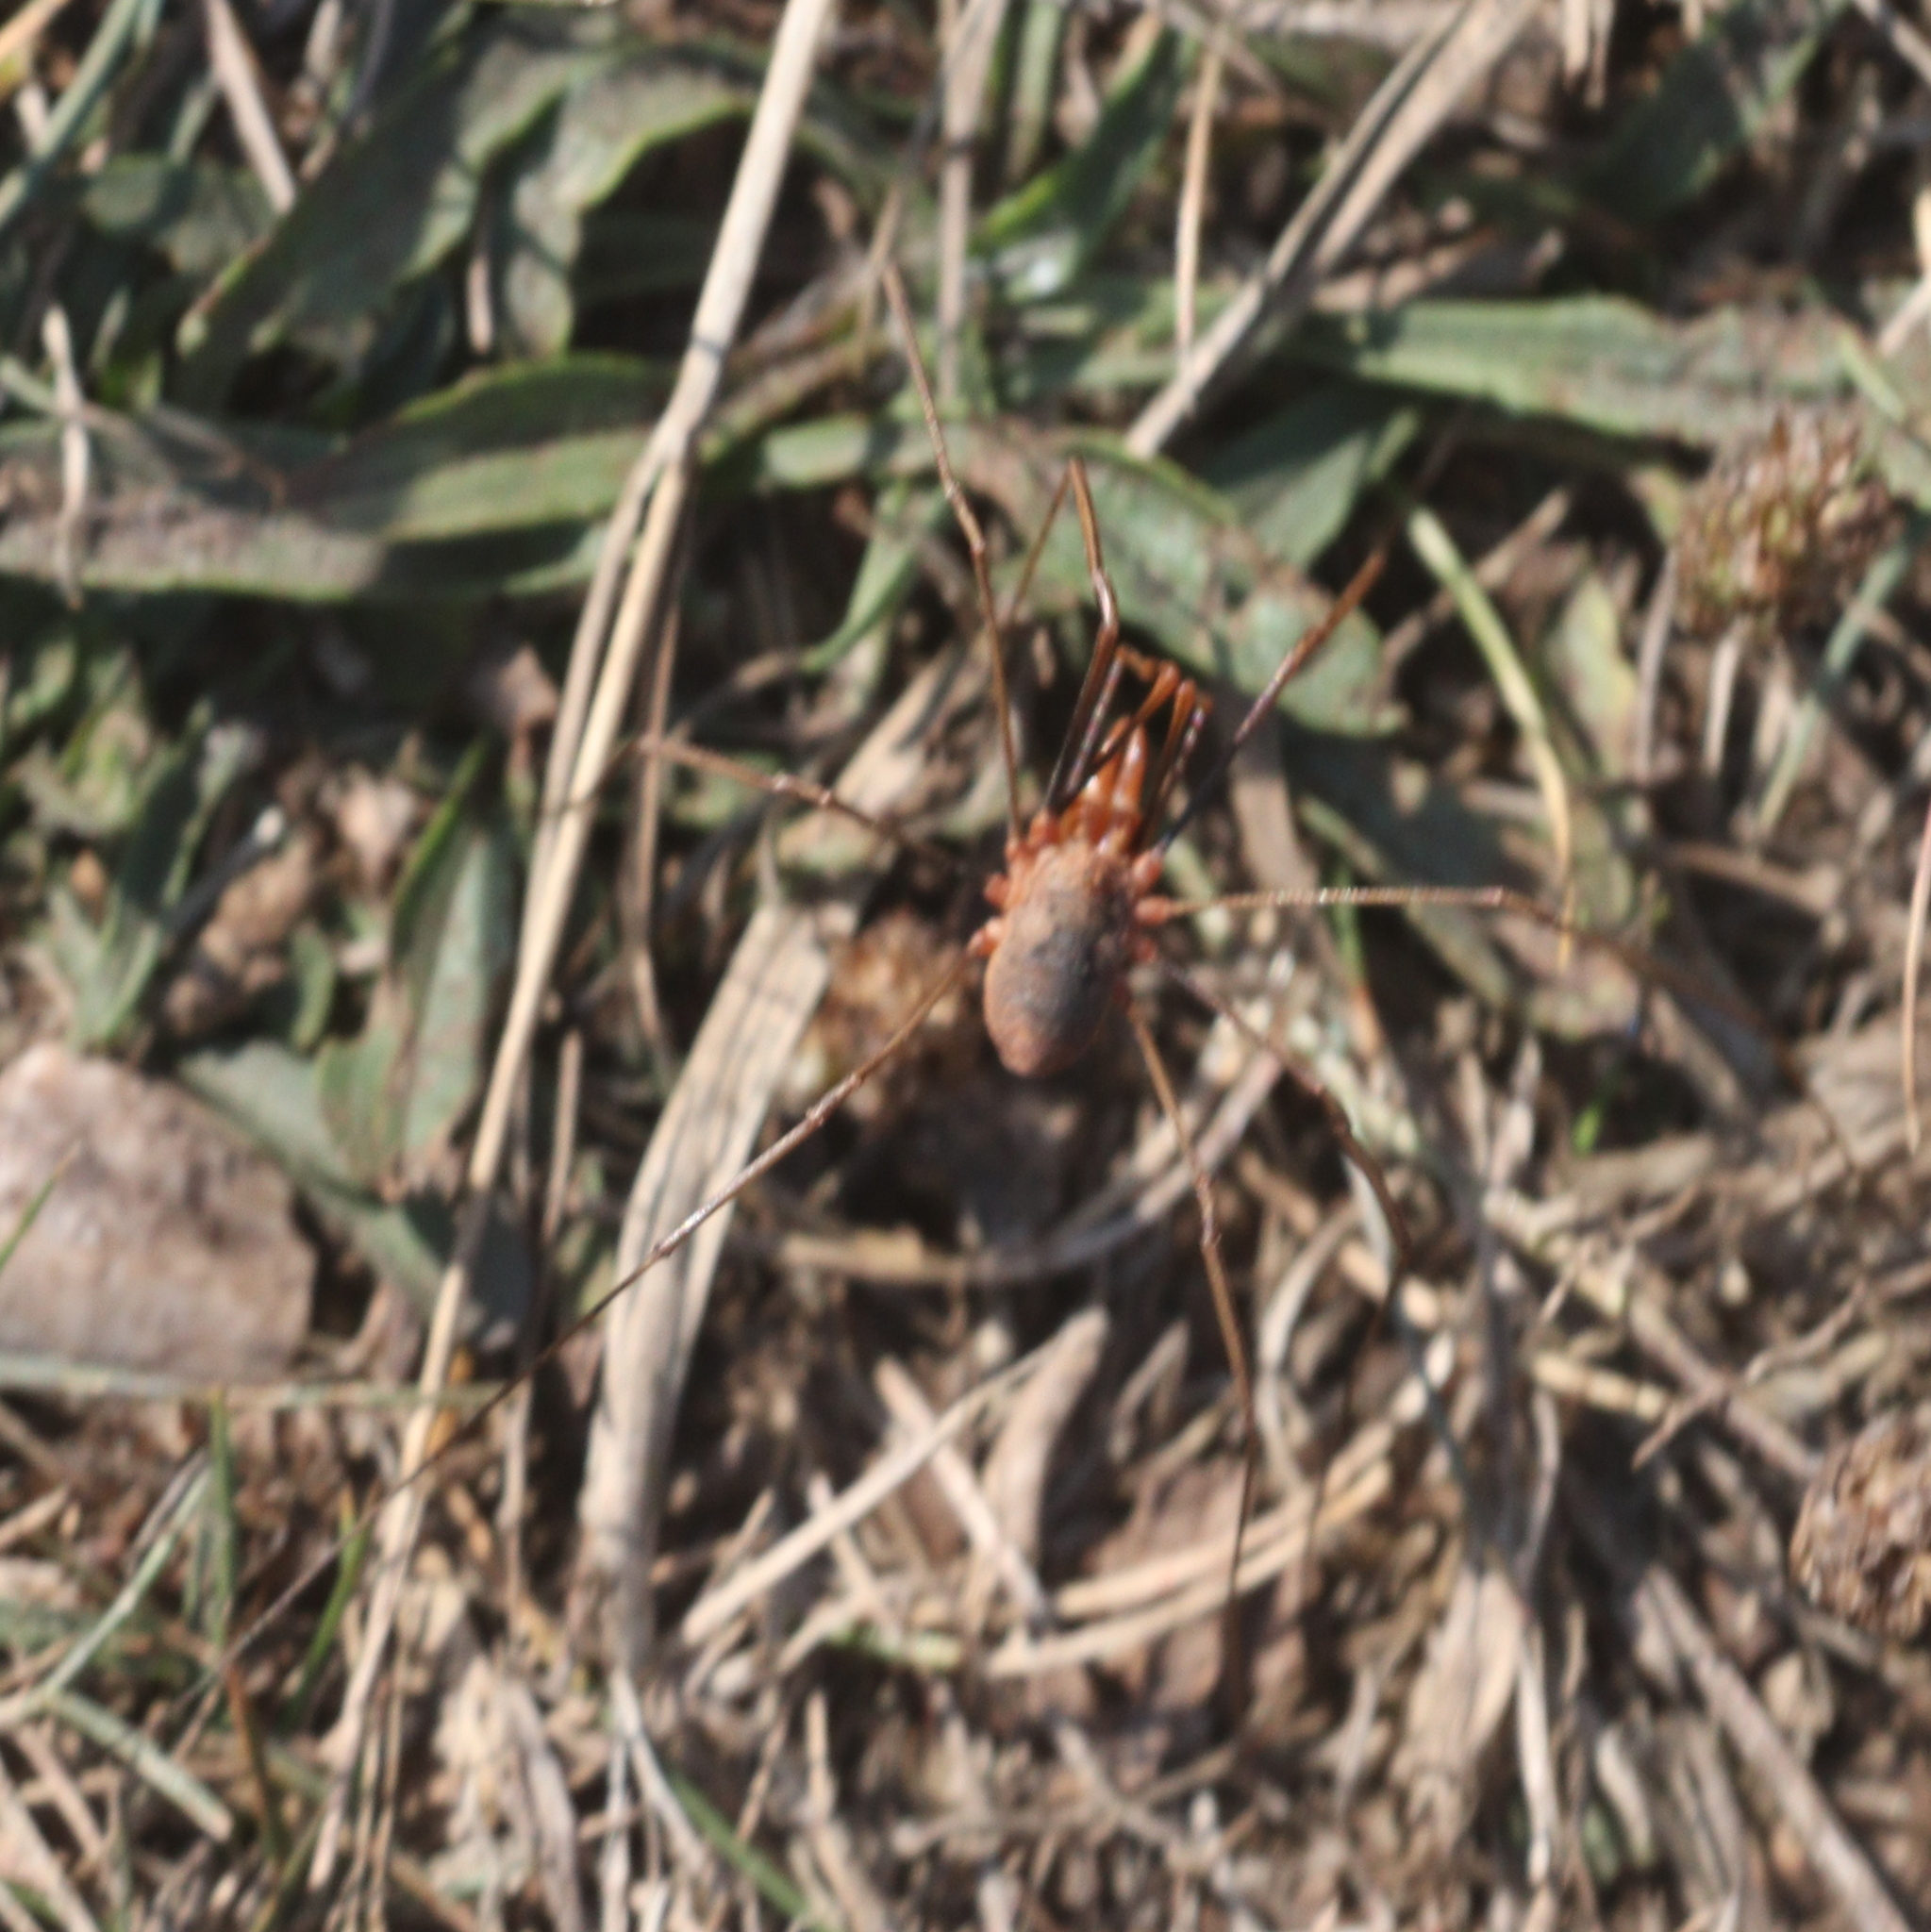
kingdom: Animalia
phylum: Arthropoda
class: Arachnida
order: Opiliones
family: Phalangiidae
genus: Phalangium
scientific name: Phalangium opilio
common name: Daddy longleg
